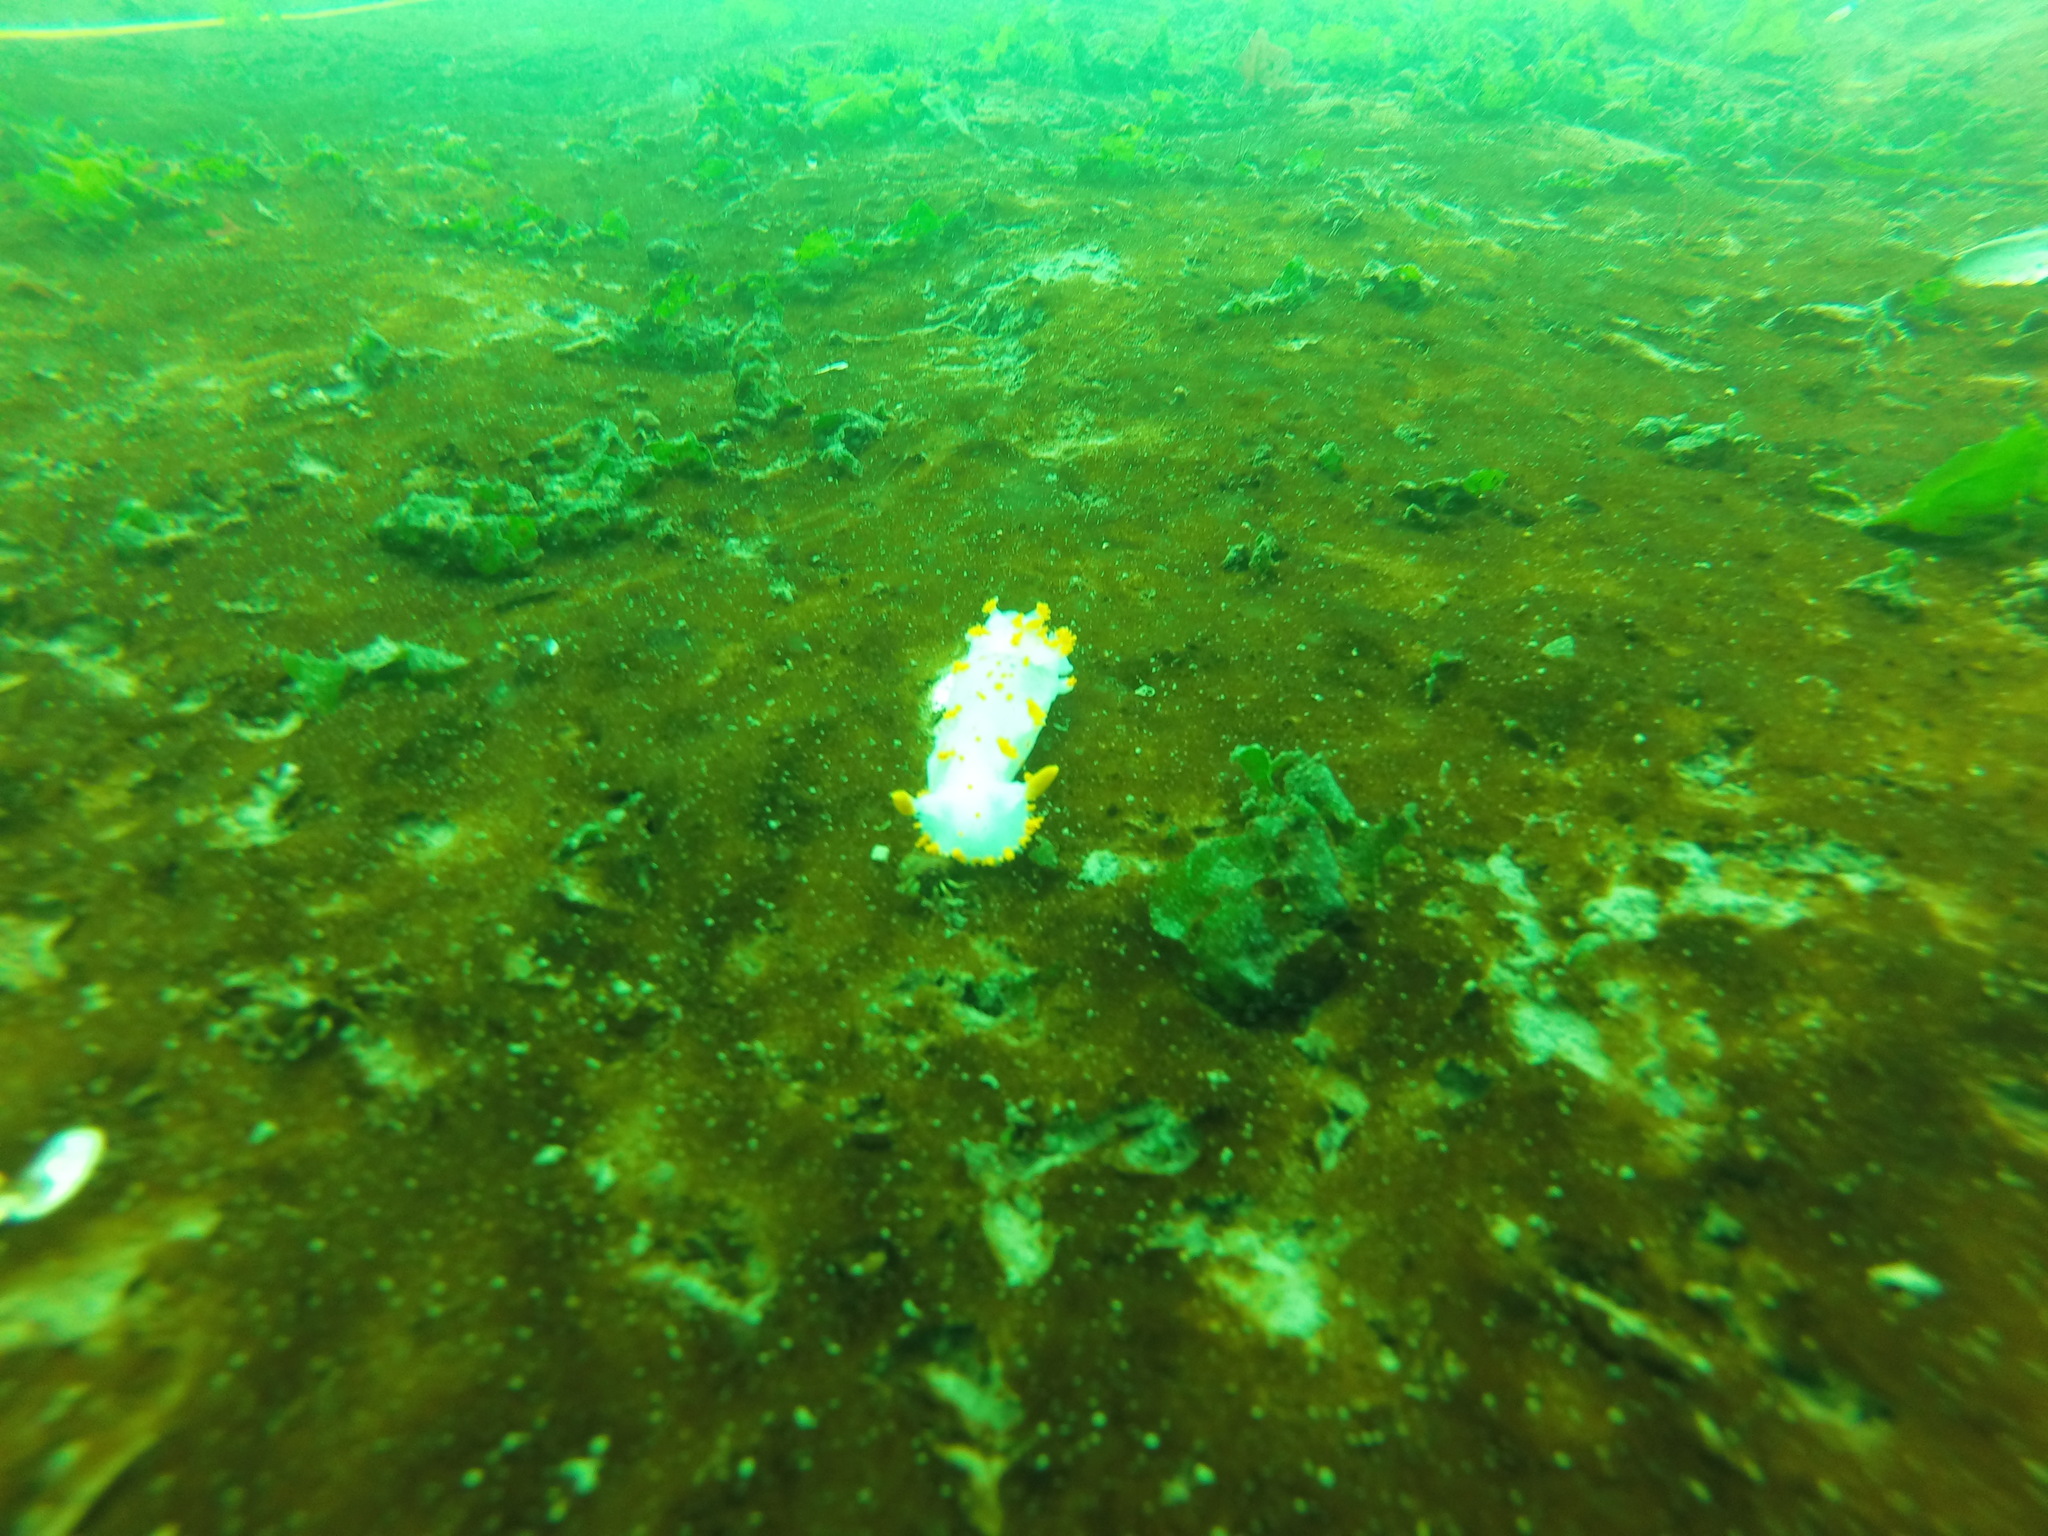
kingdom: Animalia
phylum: Mollusca
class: Gastropoda
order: Nudibranchia
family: Polyceridae
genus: Triopha
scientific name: Triopha catalinae
